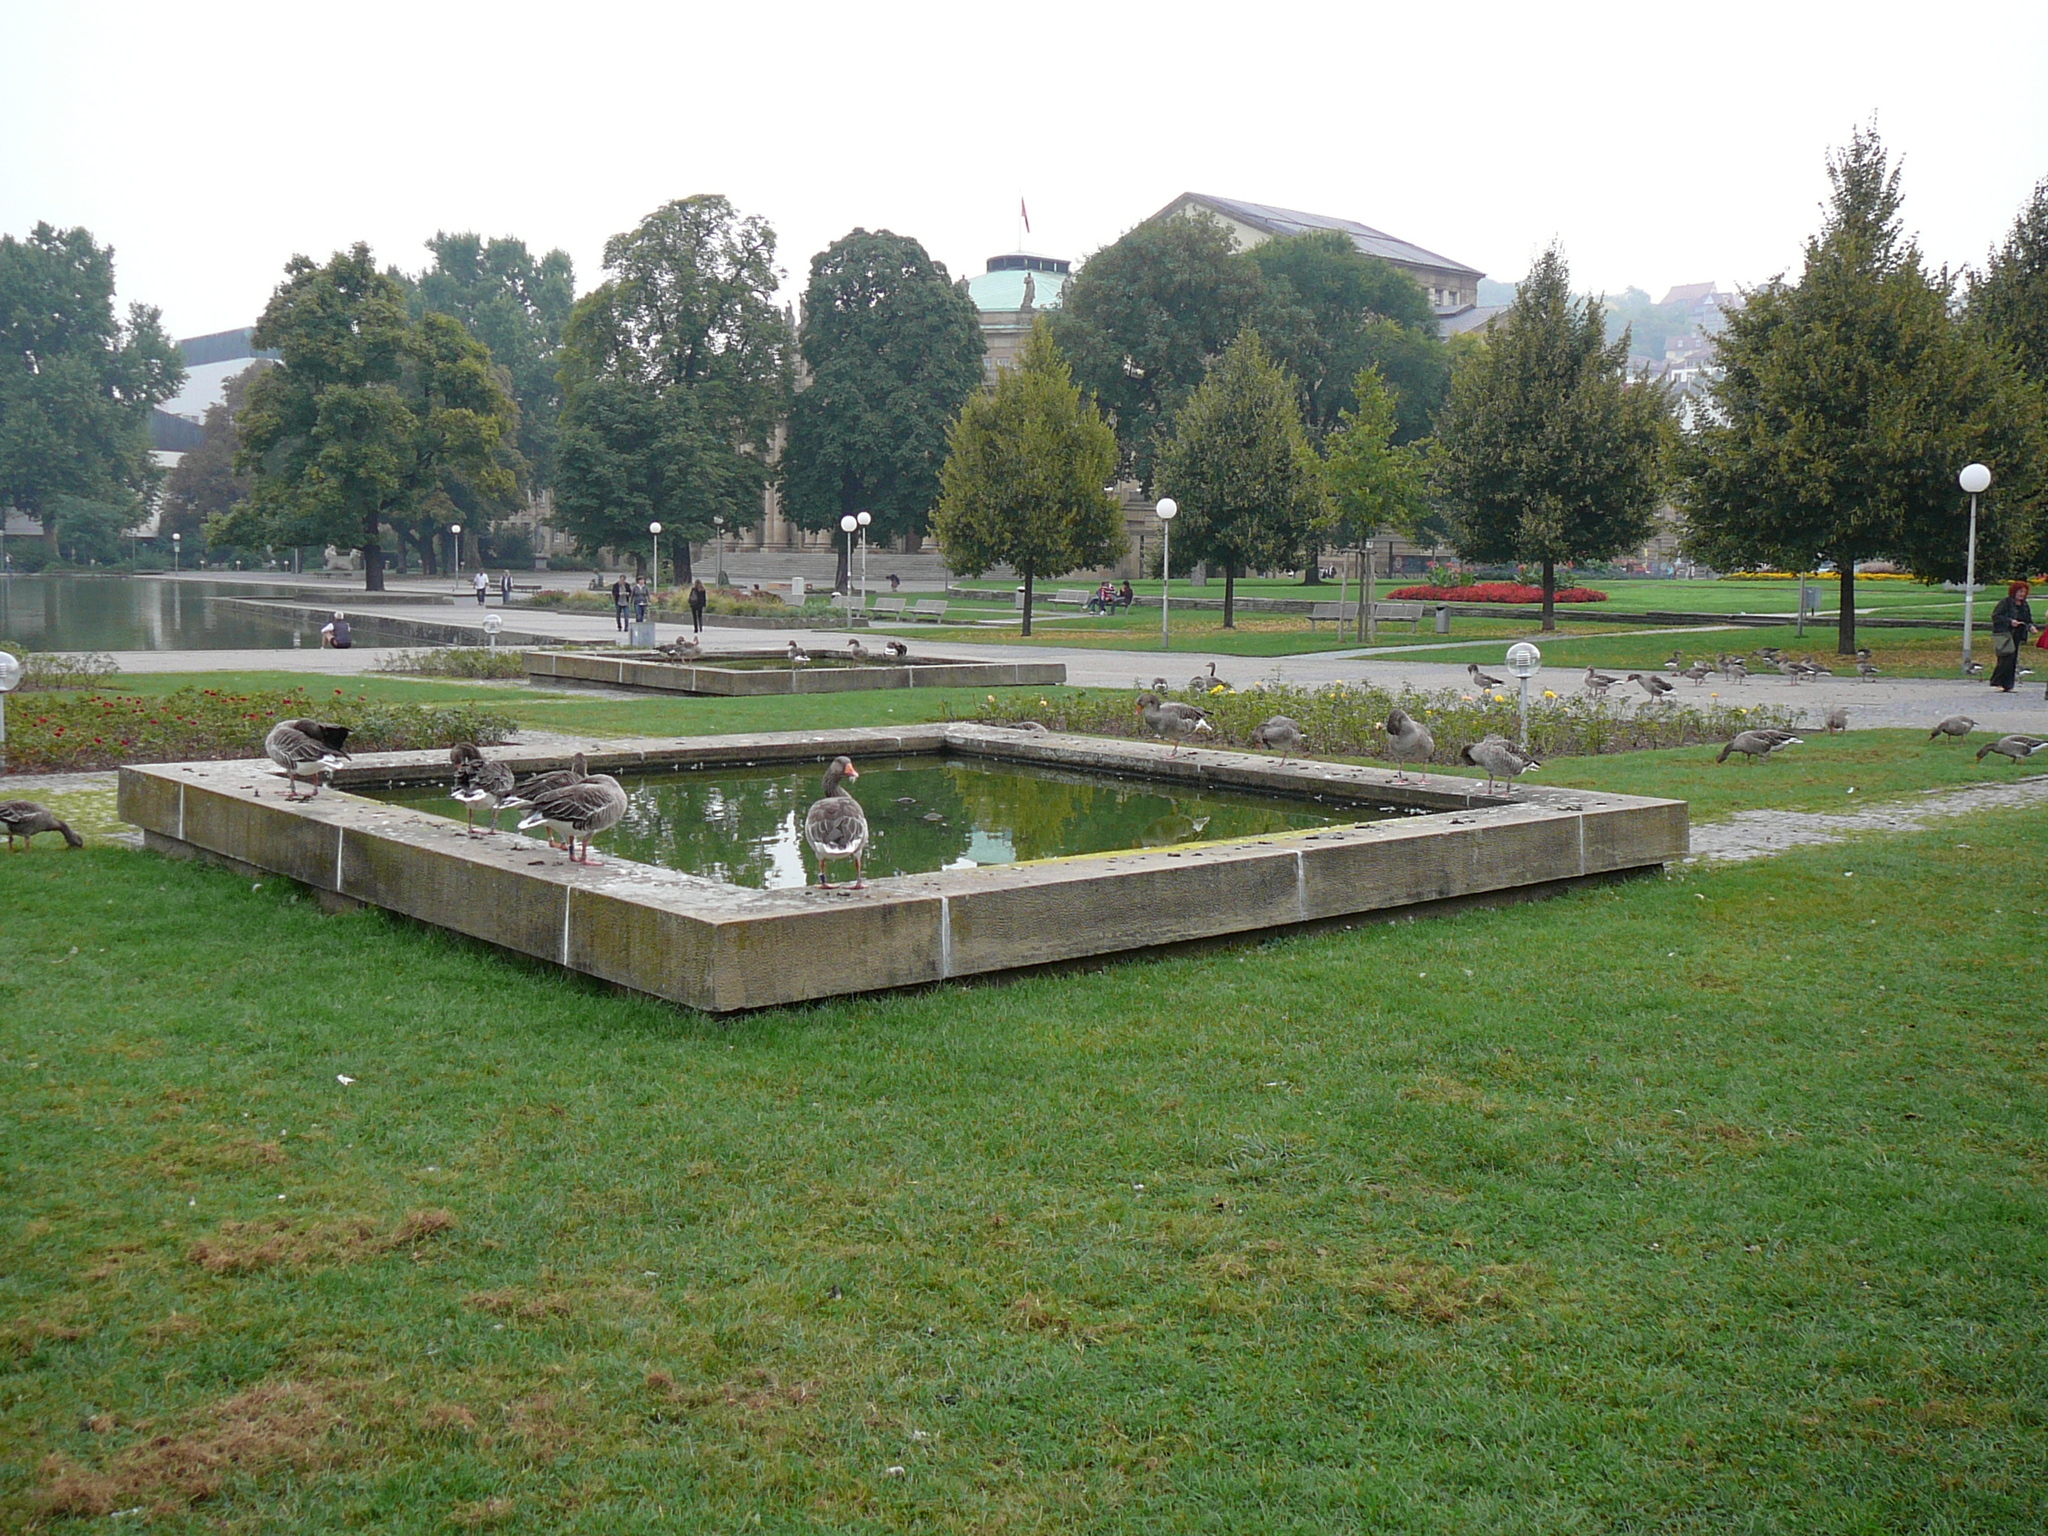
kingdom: Animalia
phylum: Chordata
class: Aves
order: Anseriformes
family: Anatidae
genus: Anser
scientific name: Anser anser
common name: Greylag goose
